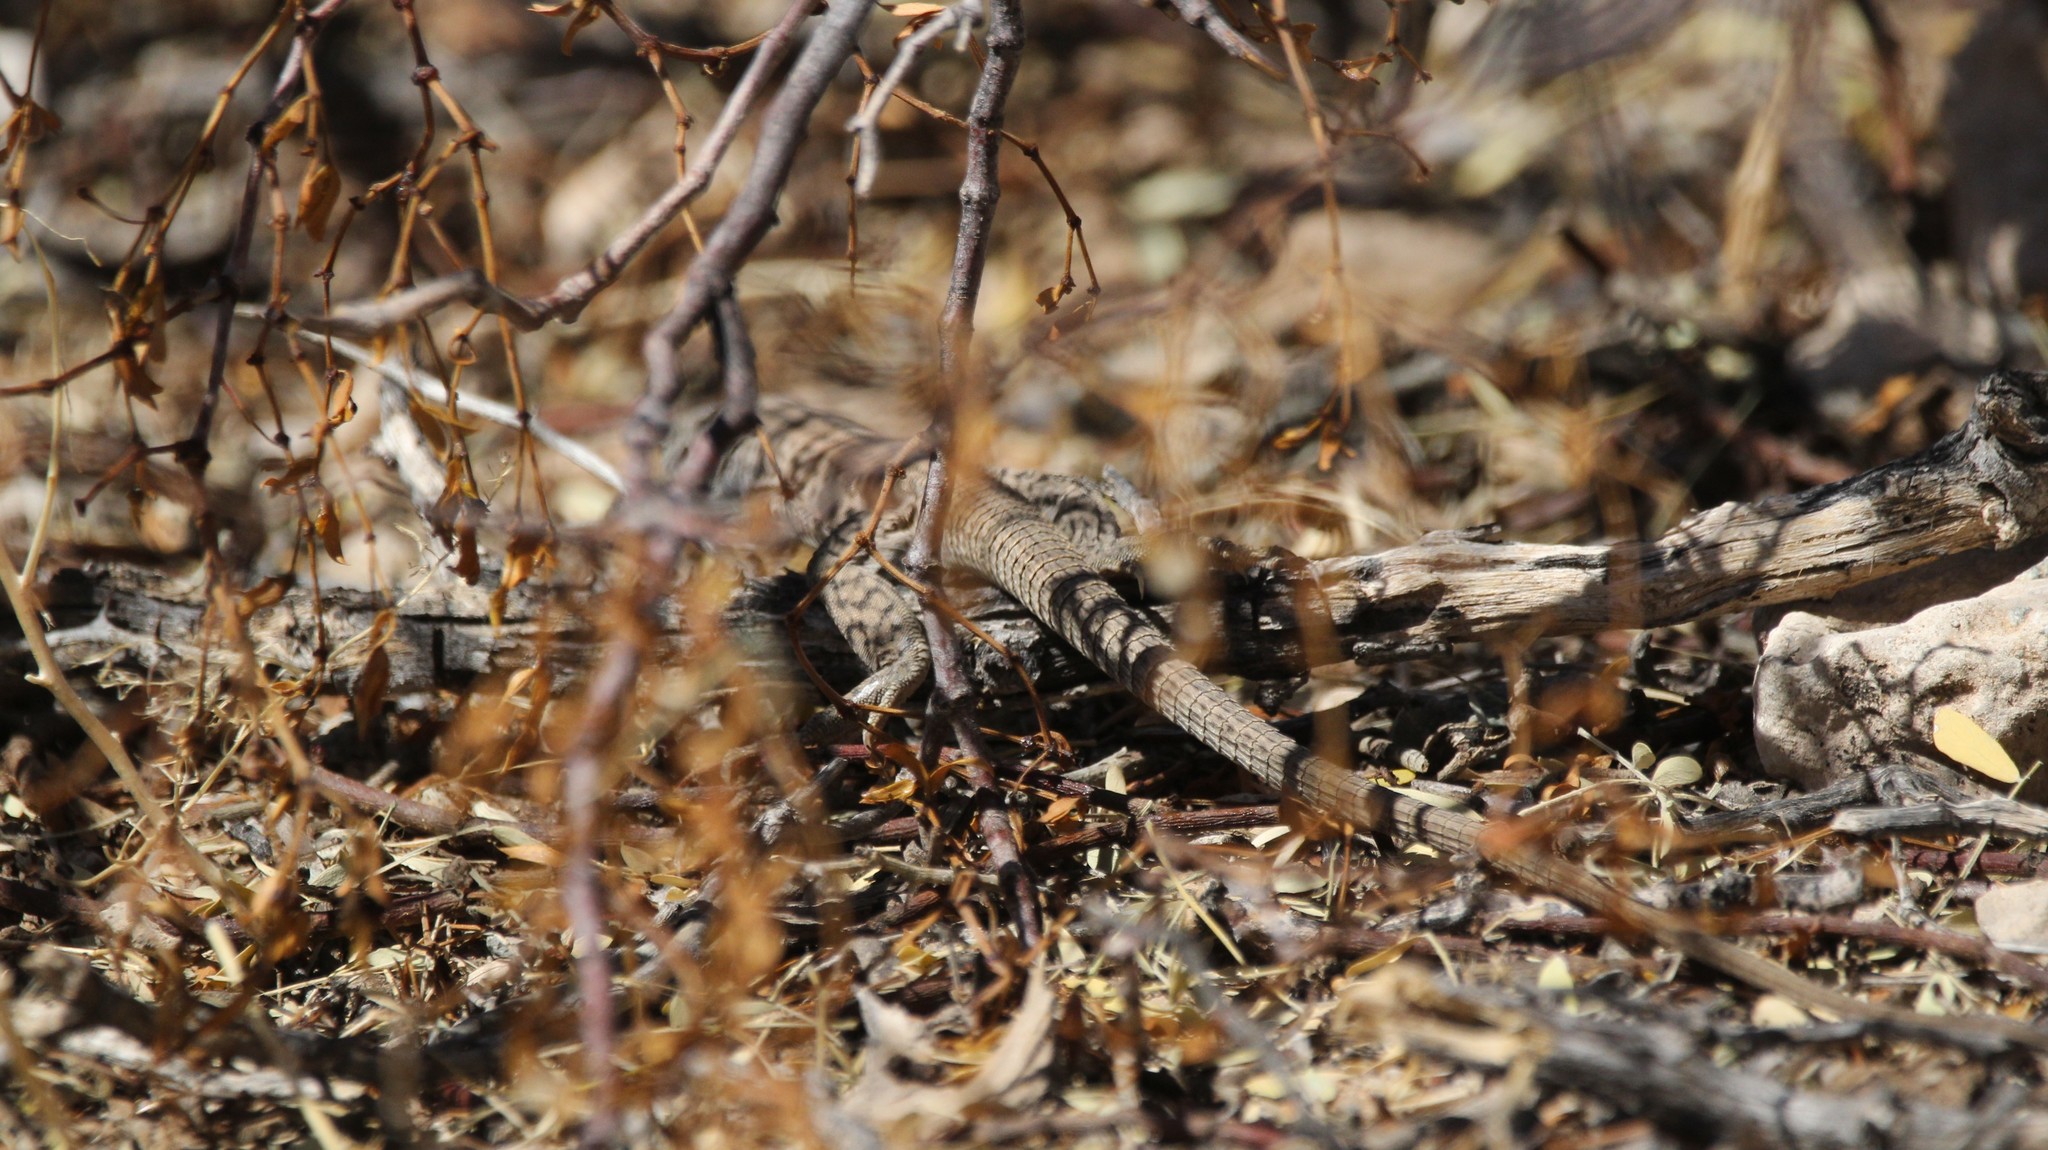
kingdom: Animalia
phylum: Chordata
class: Squamata
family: Teiidae
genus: Aspidoscelis
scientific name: Aspidoscelis tigris
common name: Tiger whiptail
